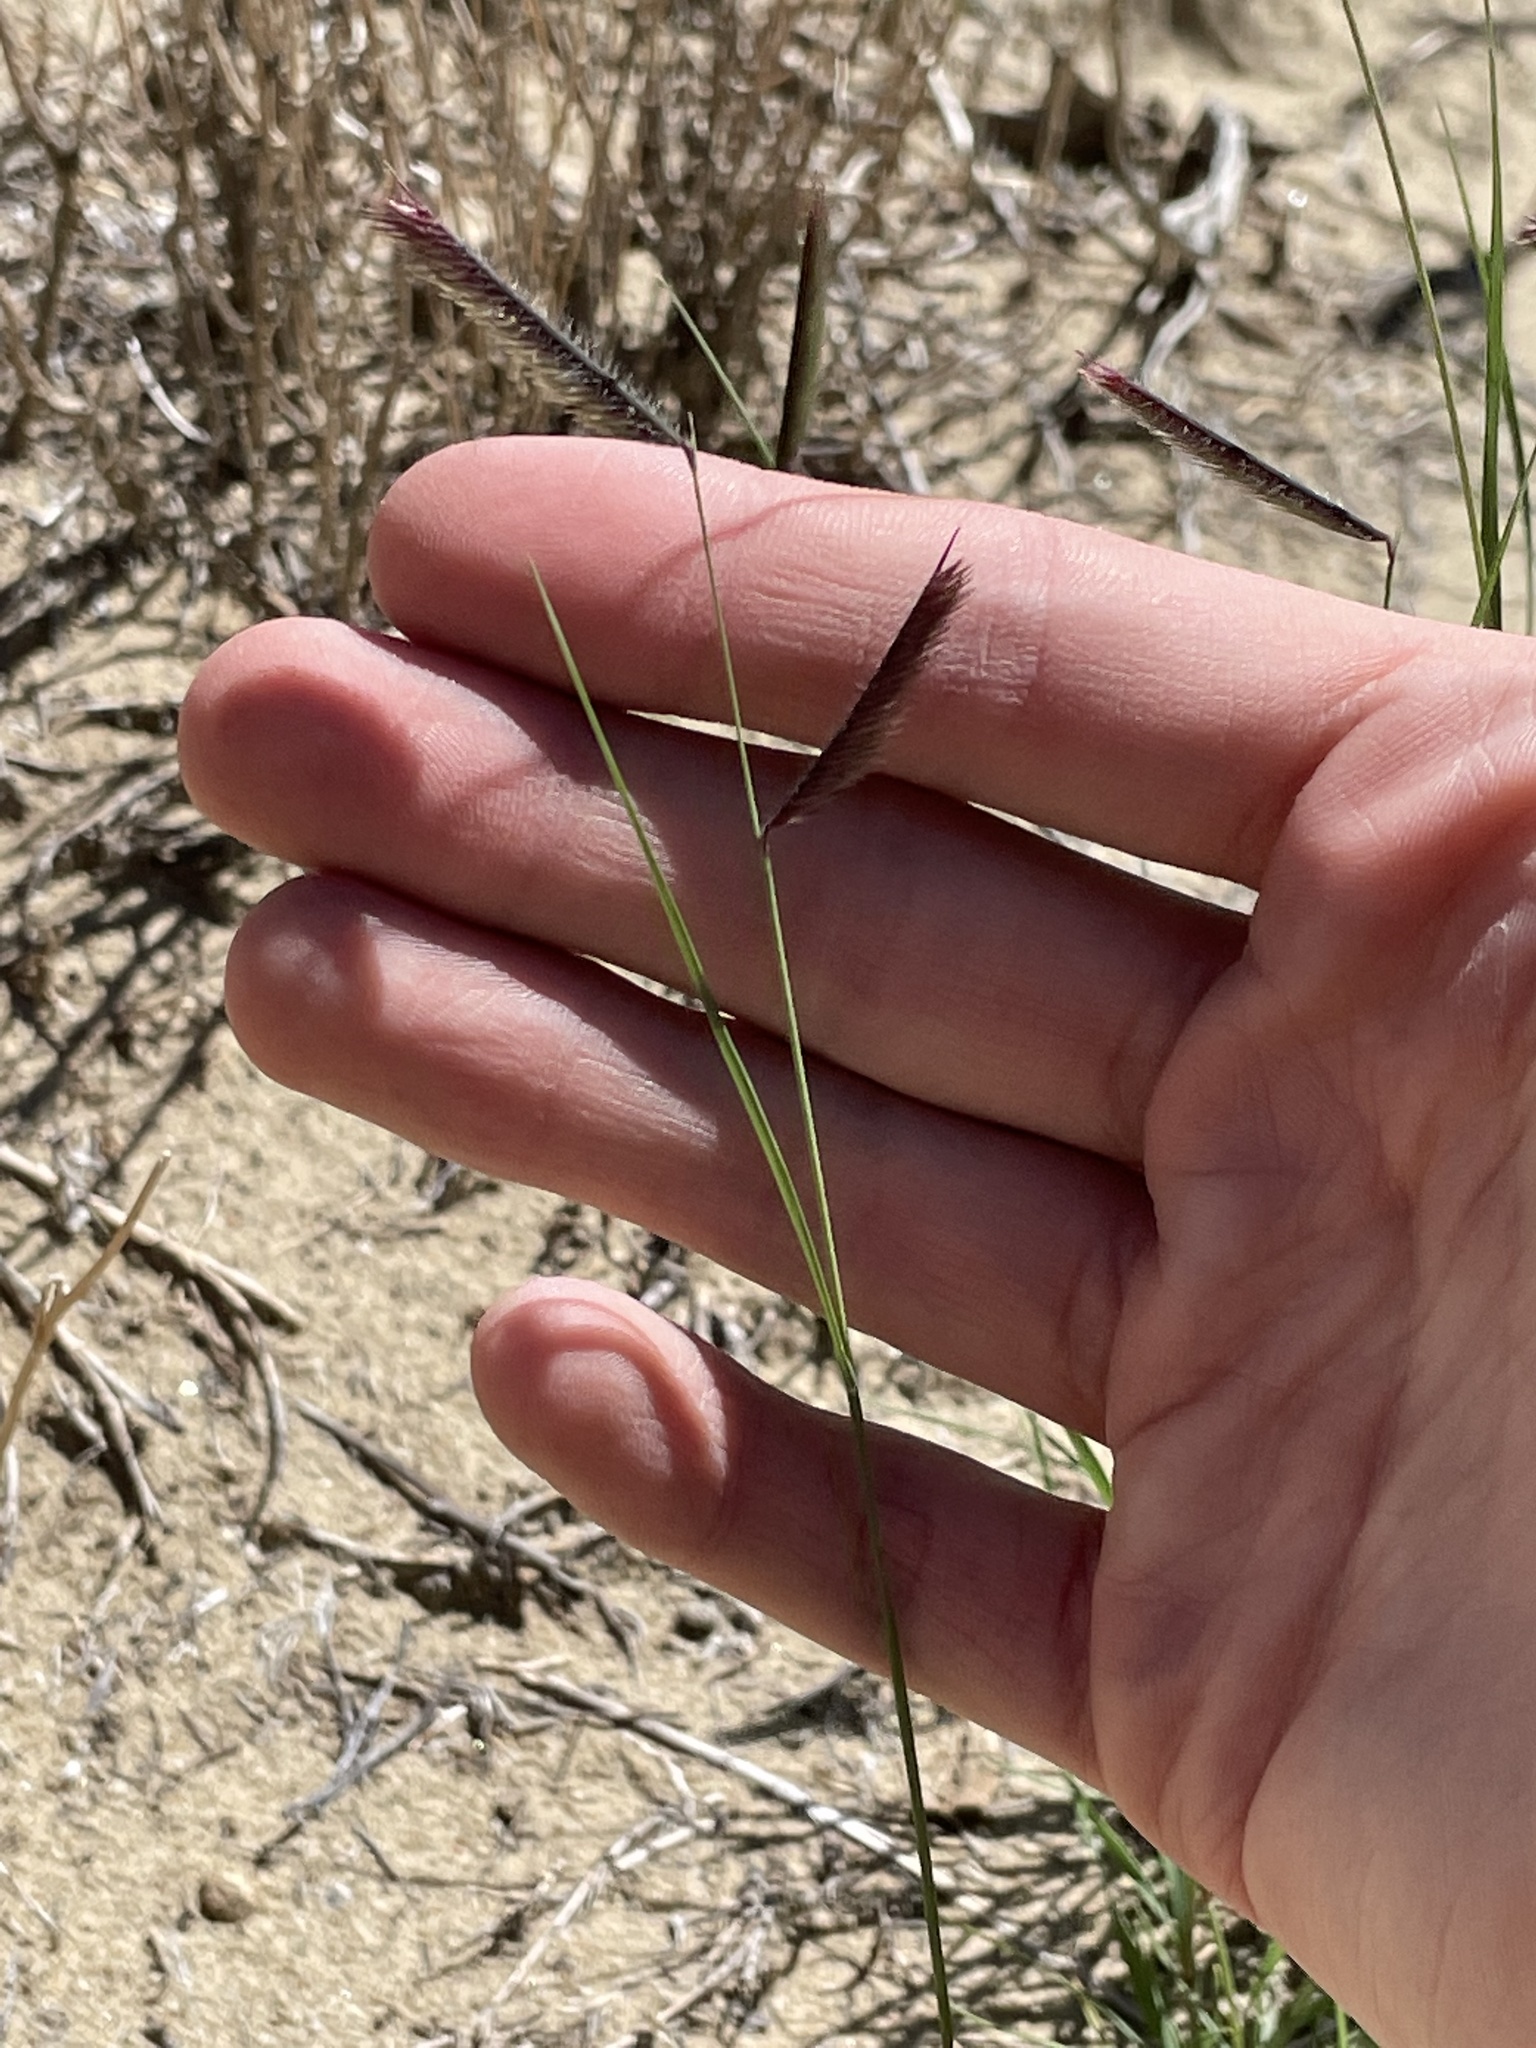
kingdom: Plantae
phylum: Tracheophyta
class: Liliopsida
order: Poales
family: Poaceae
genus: Bouteloua
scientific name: Bouteloua gracilis
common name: Blue grama
